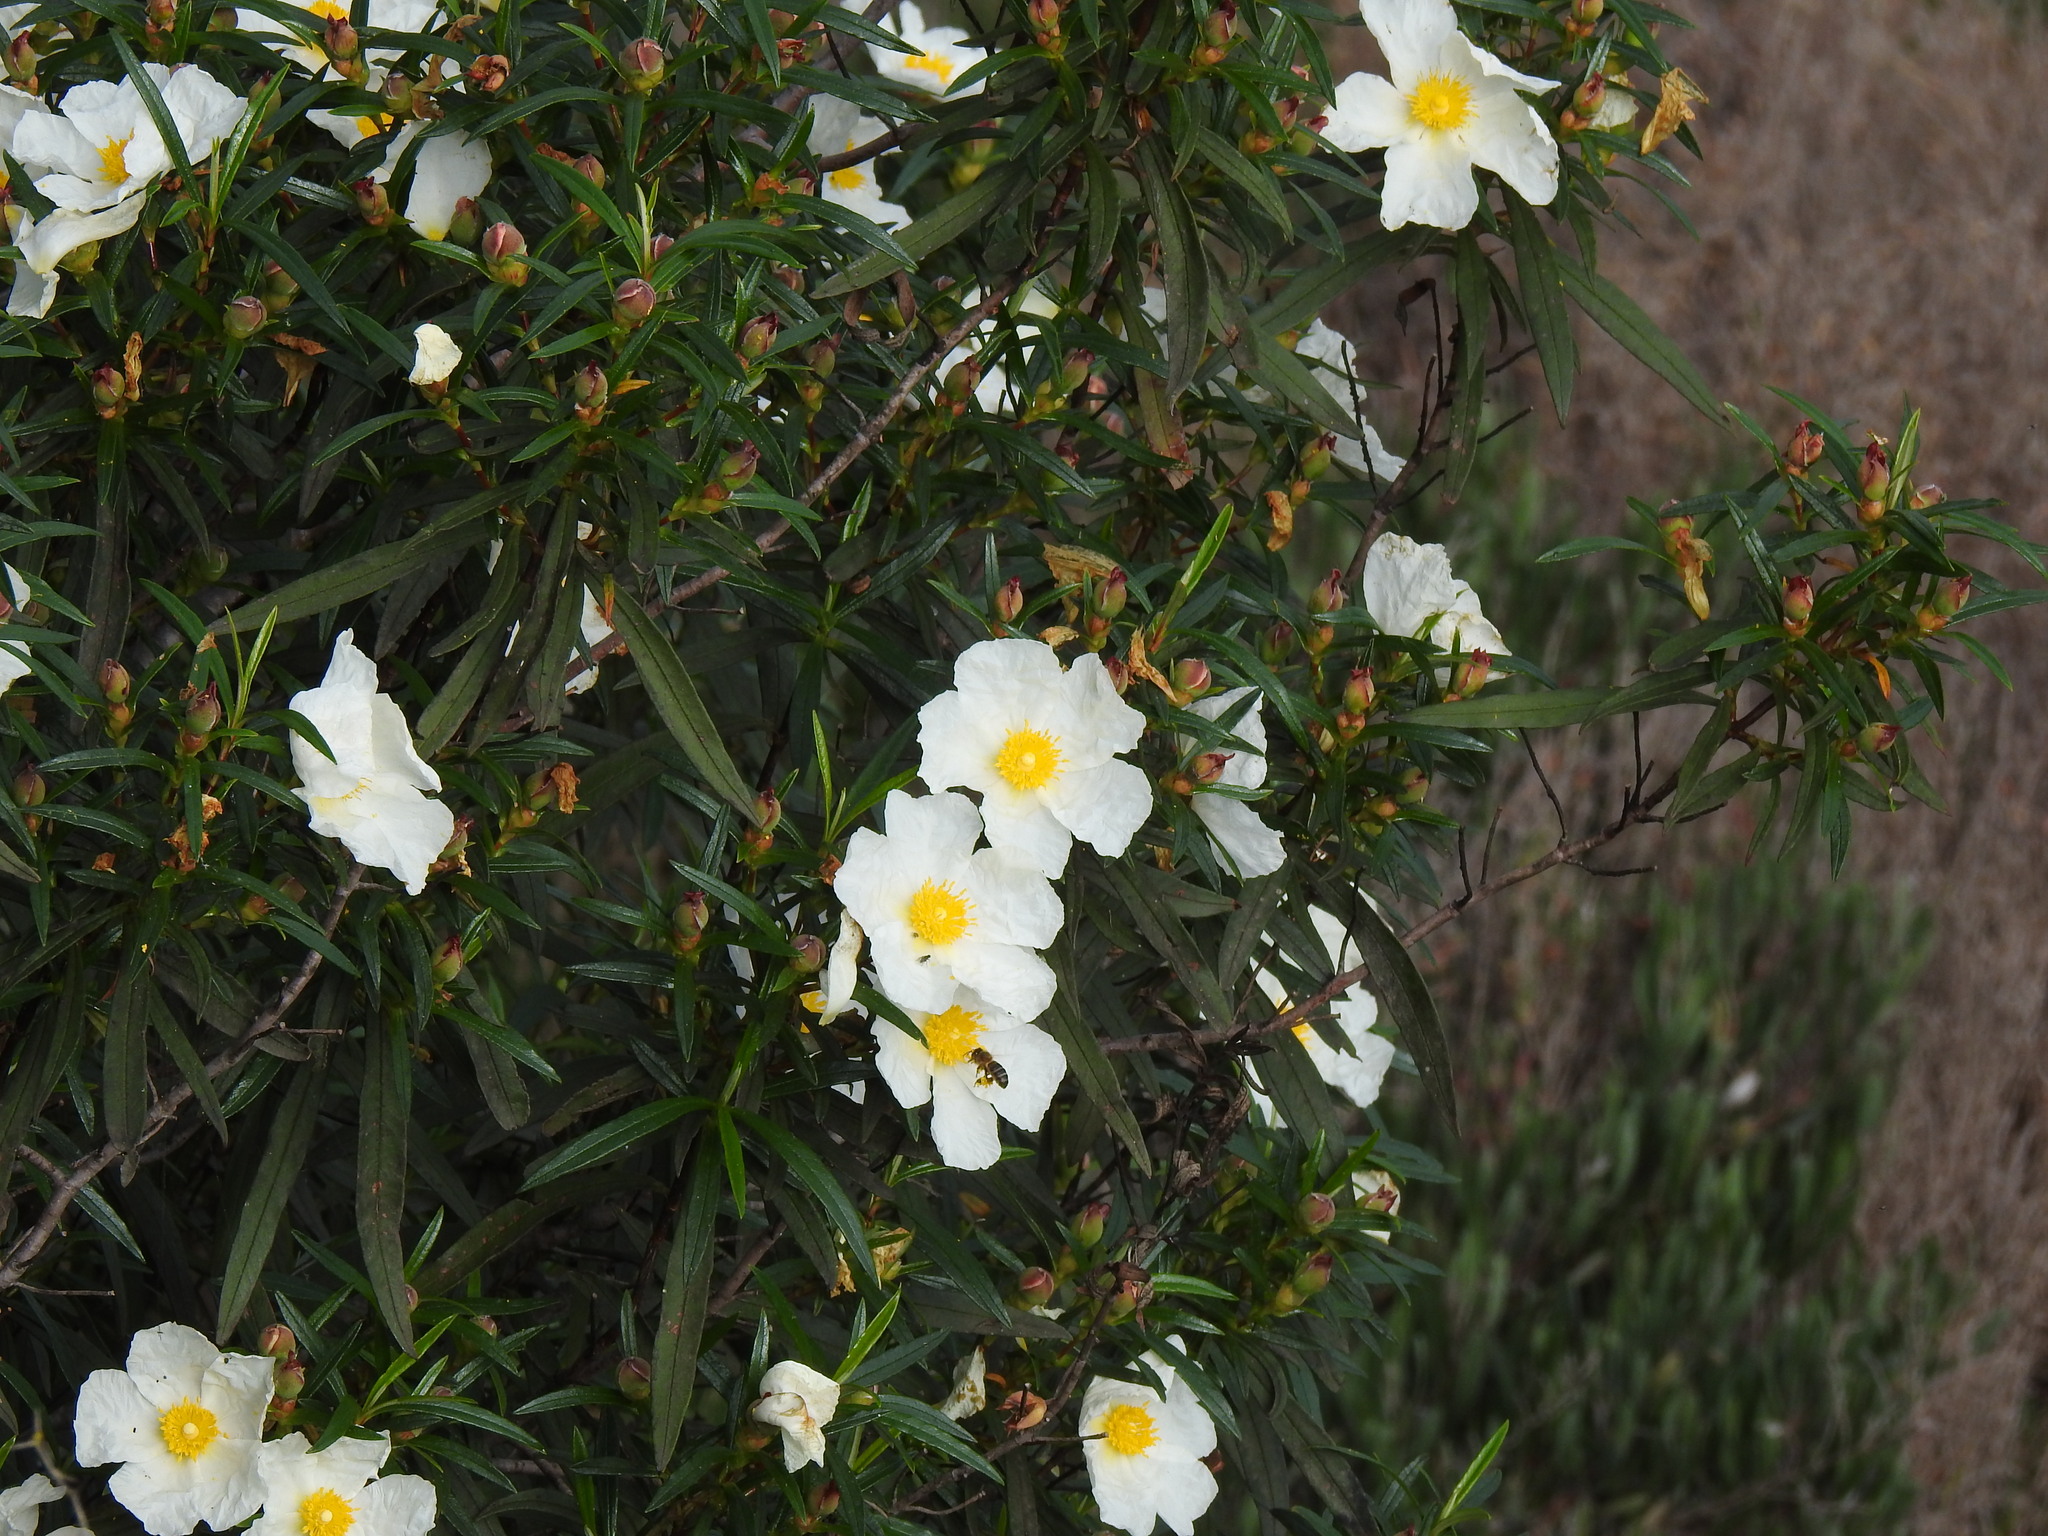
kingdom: Plantae
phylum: Tracheophyta
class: Magnoliopsida
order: Malvales
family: Cistaceae
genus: Cistus
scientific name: Cistus ladanifer
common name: Common gum cistus
